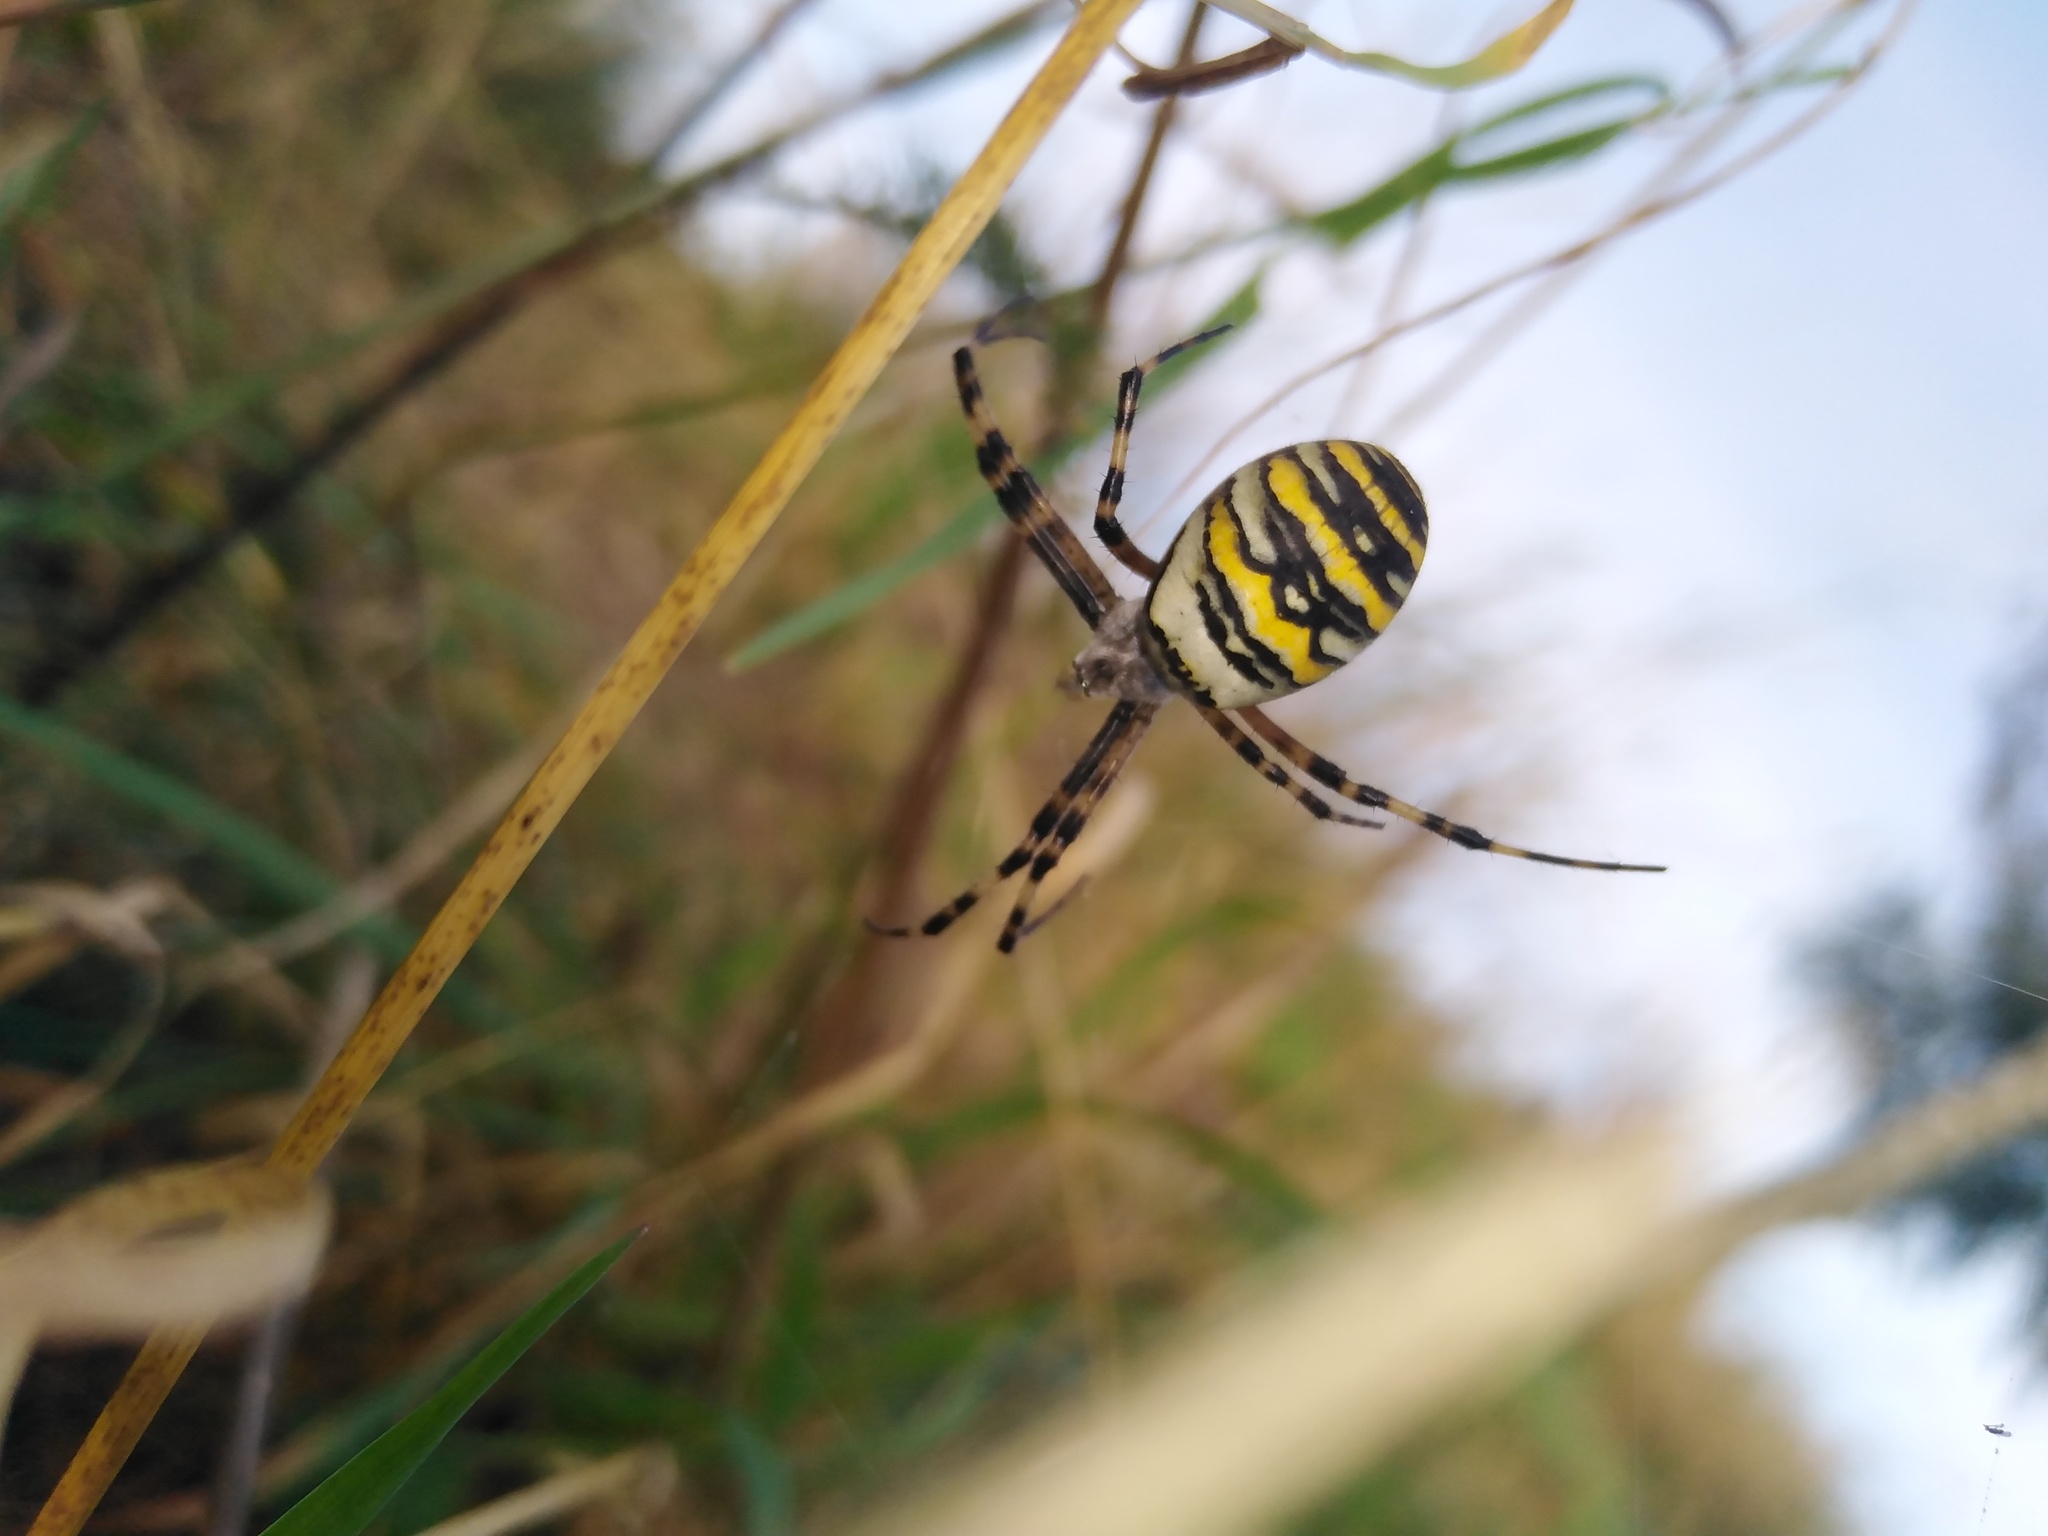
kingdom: Animalia
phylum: Arthropoda
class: Arachnida
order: Araneae
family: Araneidae
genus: Argiope
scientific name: Argiope bruennichi
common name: Wasp spider
